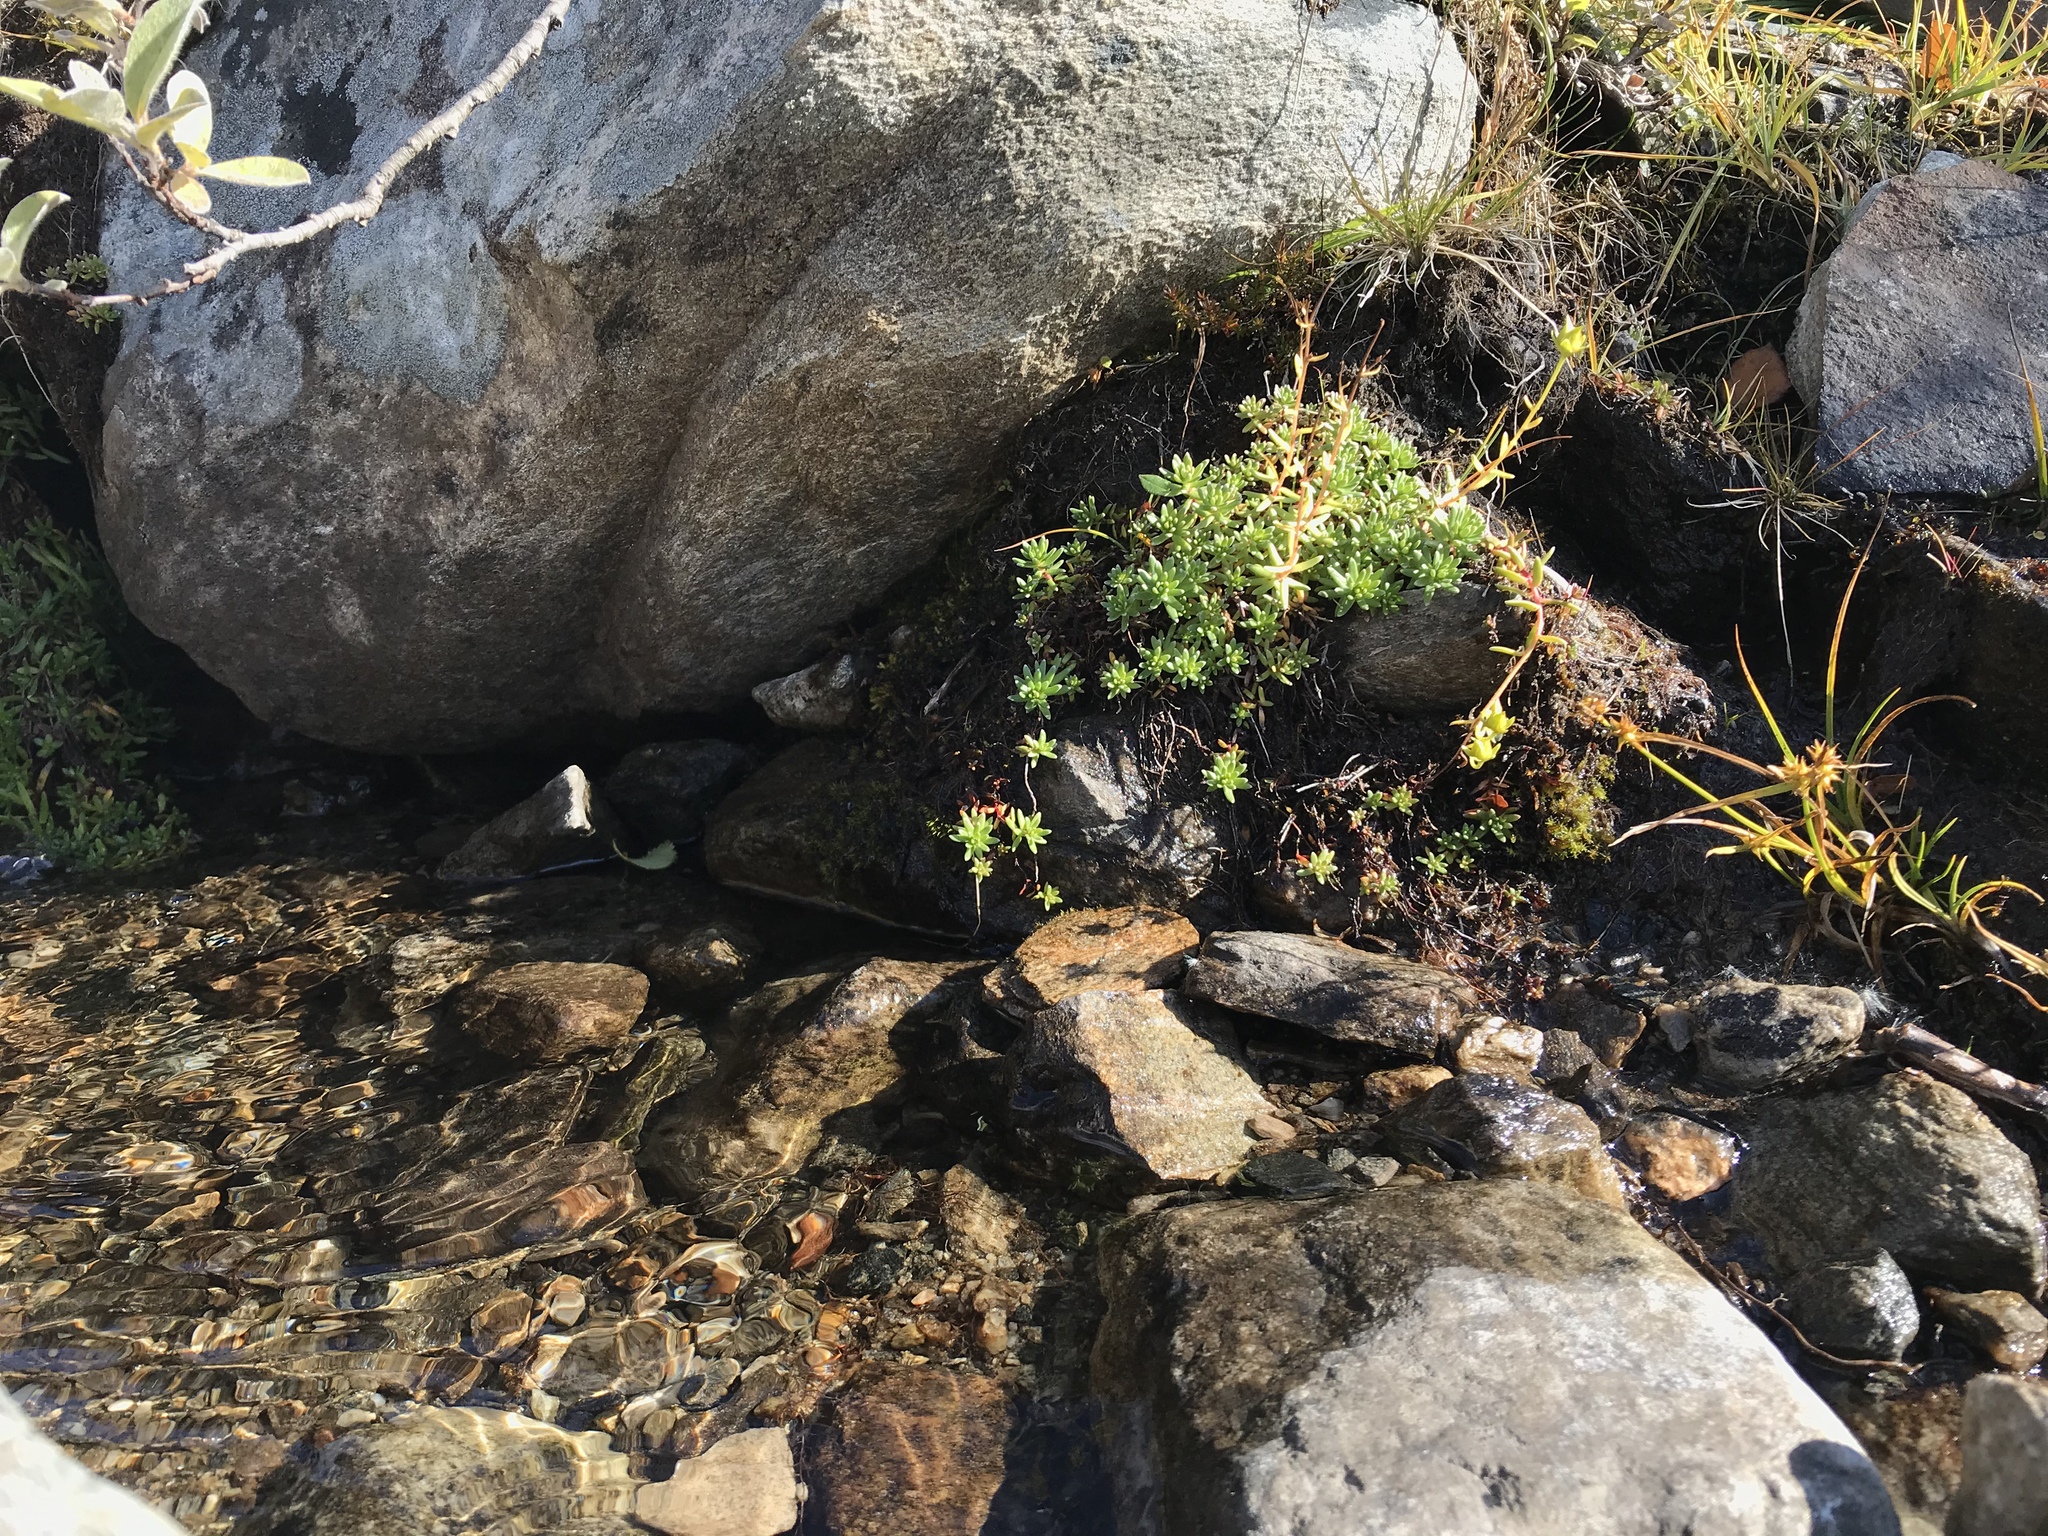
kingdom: Plantae
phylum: Tracheophyta
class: Magnoliopsida
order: Saxifragales
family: Saxifragaceae
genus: Saxifraga
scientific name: Saxifraga aizoides
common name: Yellow mountain saxifrage
